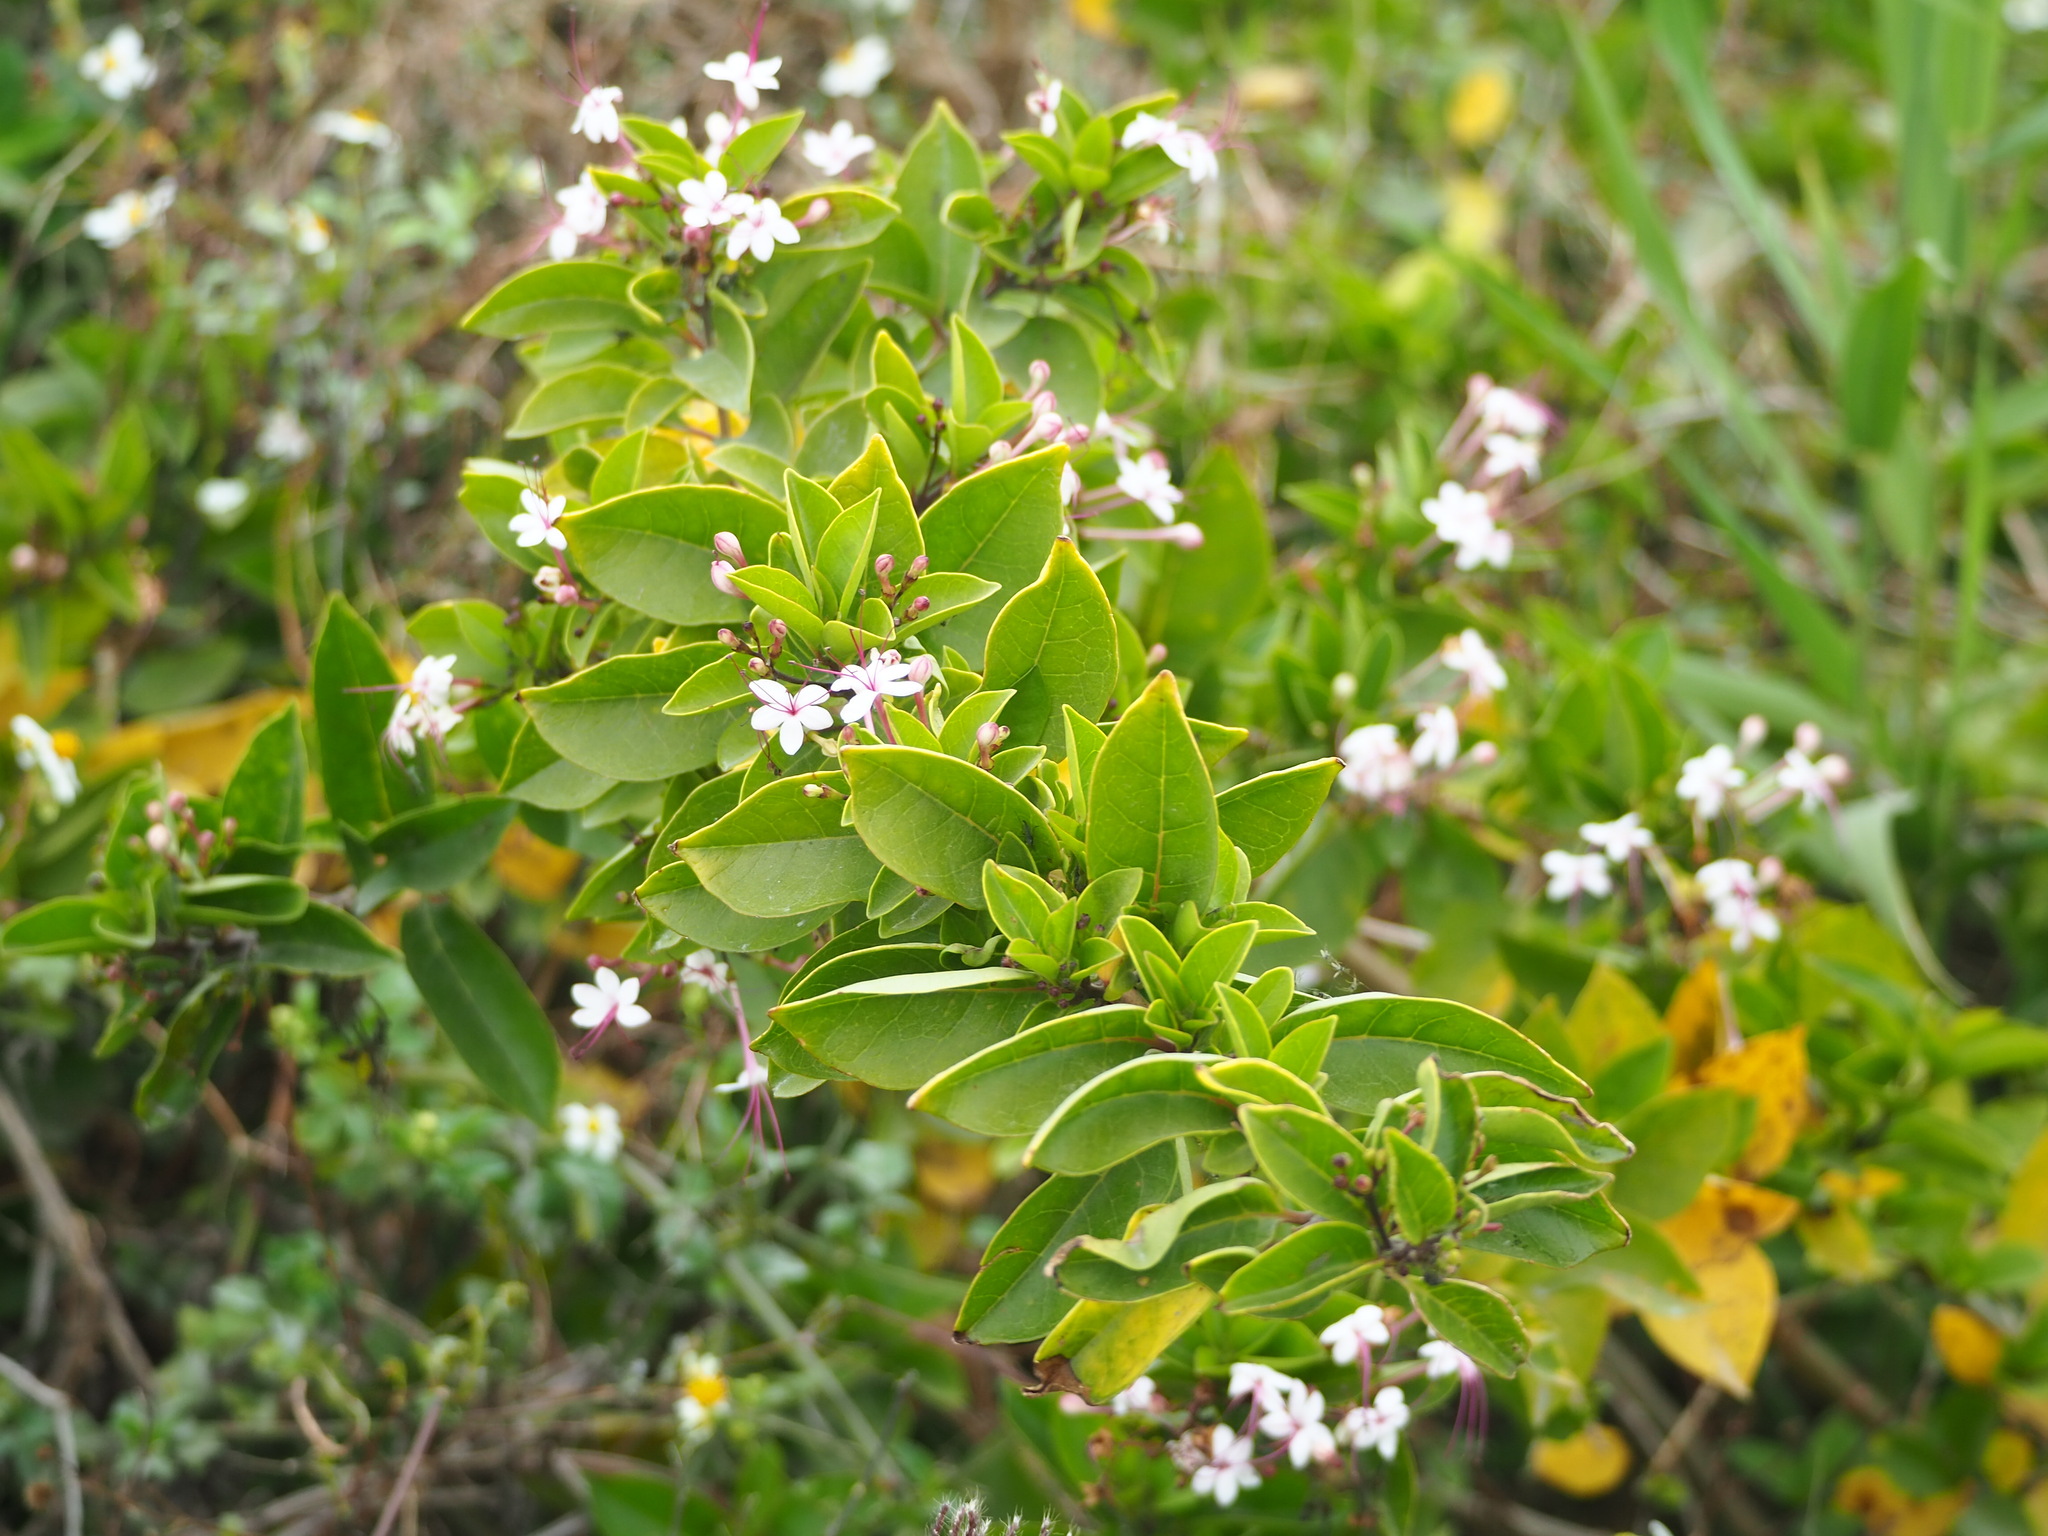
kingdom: Plantae
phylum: Tracheophyta
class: Magnoliopsida
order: Lamiales
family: Lamiaceae
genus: Volkameria
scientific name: Volkameria inermis
